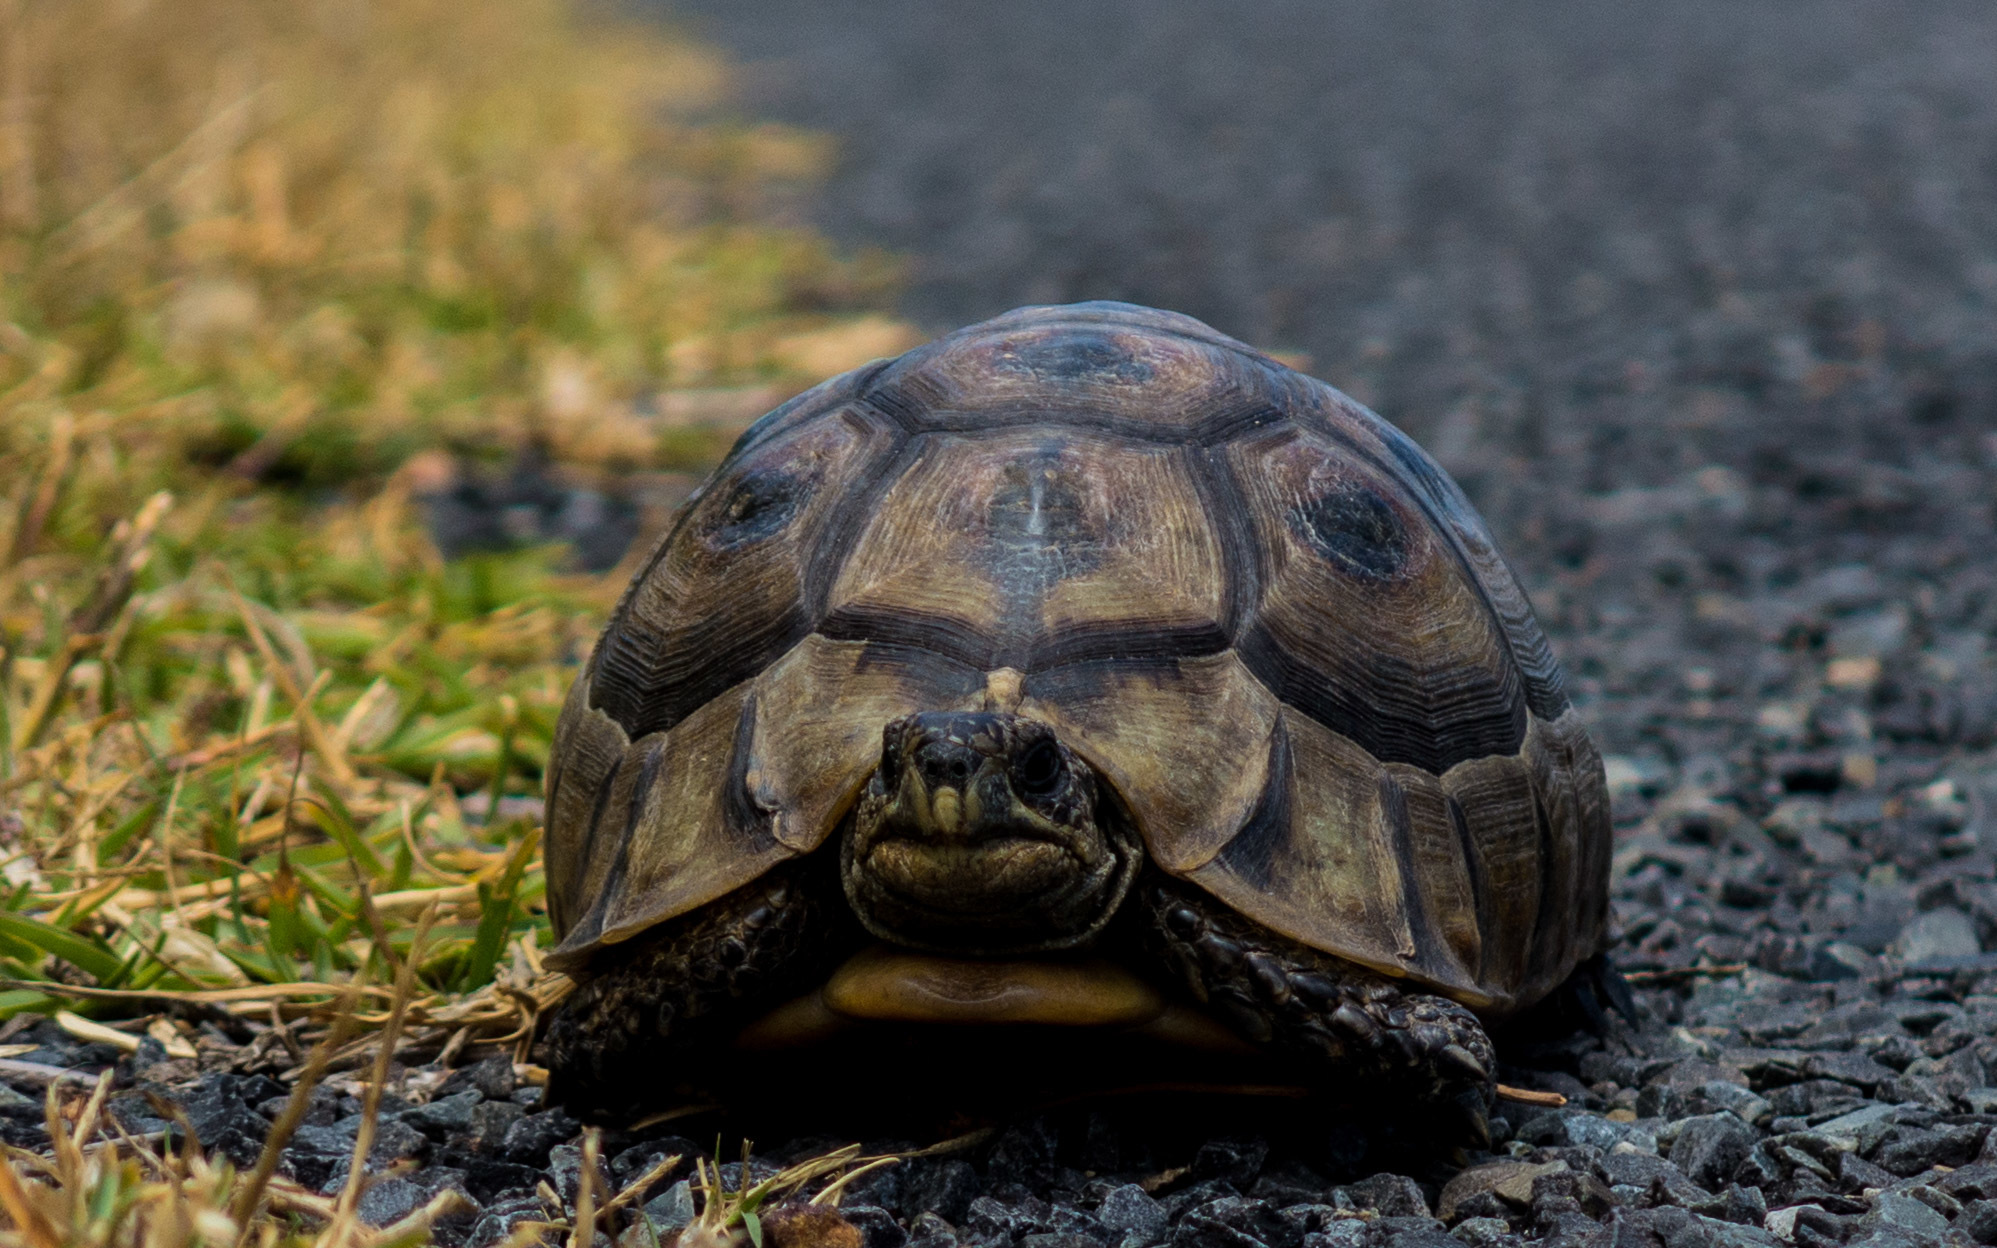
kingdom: Animalia
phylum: Chordata
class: Testudines
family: Testudinidae
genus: Chersina
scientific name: Chersina angulata
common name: South african bowsprit tortoise
